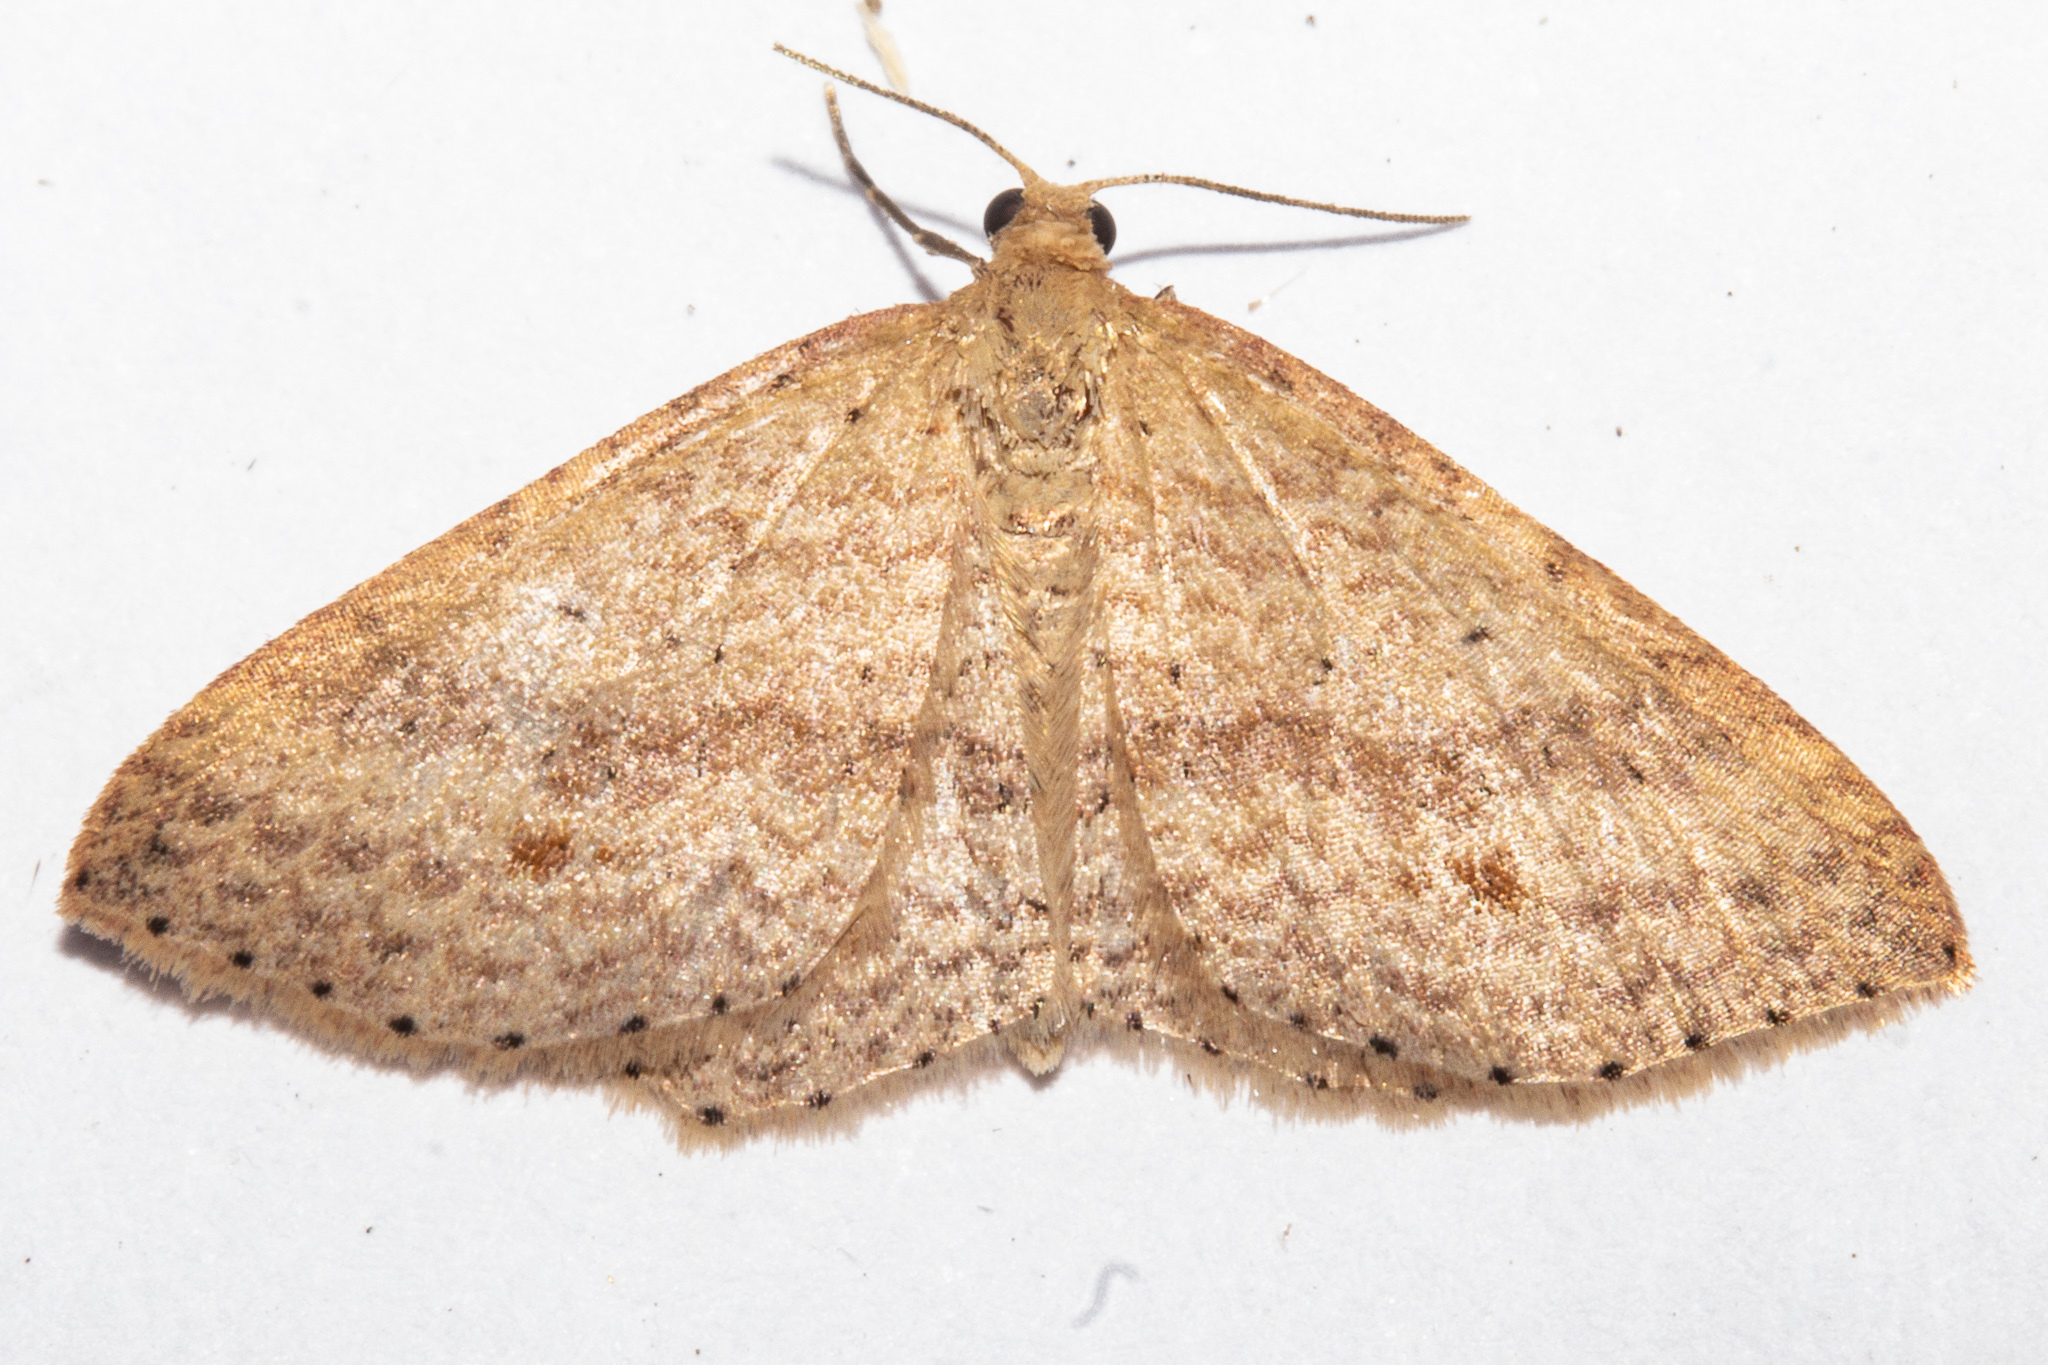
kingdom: Animalia
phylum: Arthropoda
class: Insecta
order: Lepidoptera
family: Geometridae
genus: Epicyme
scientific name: Epicyme rubropunctaria
